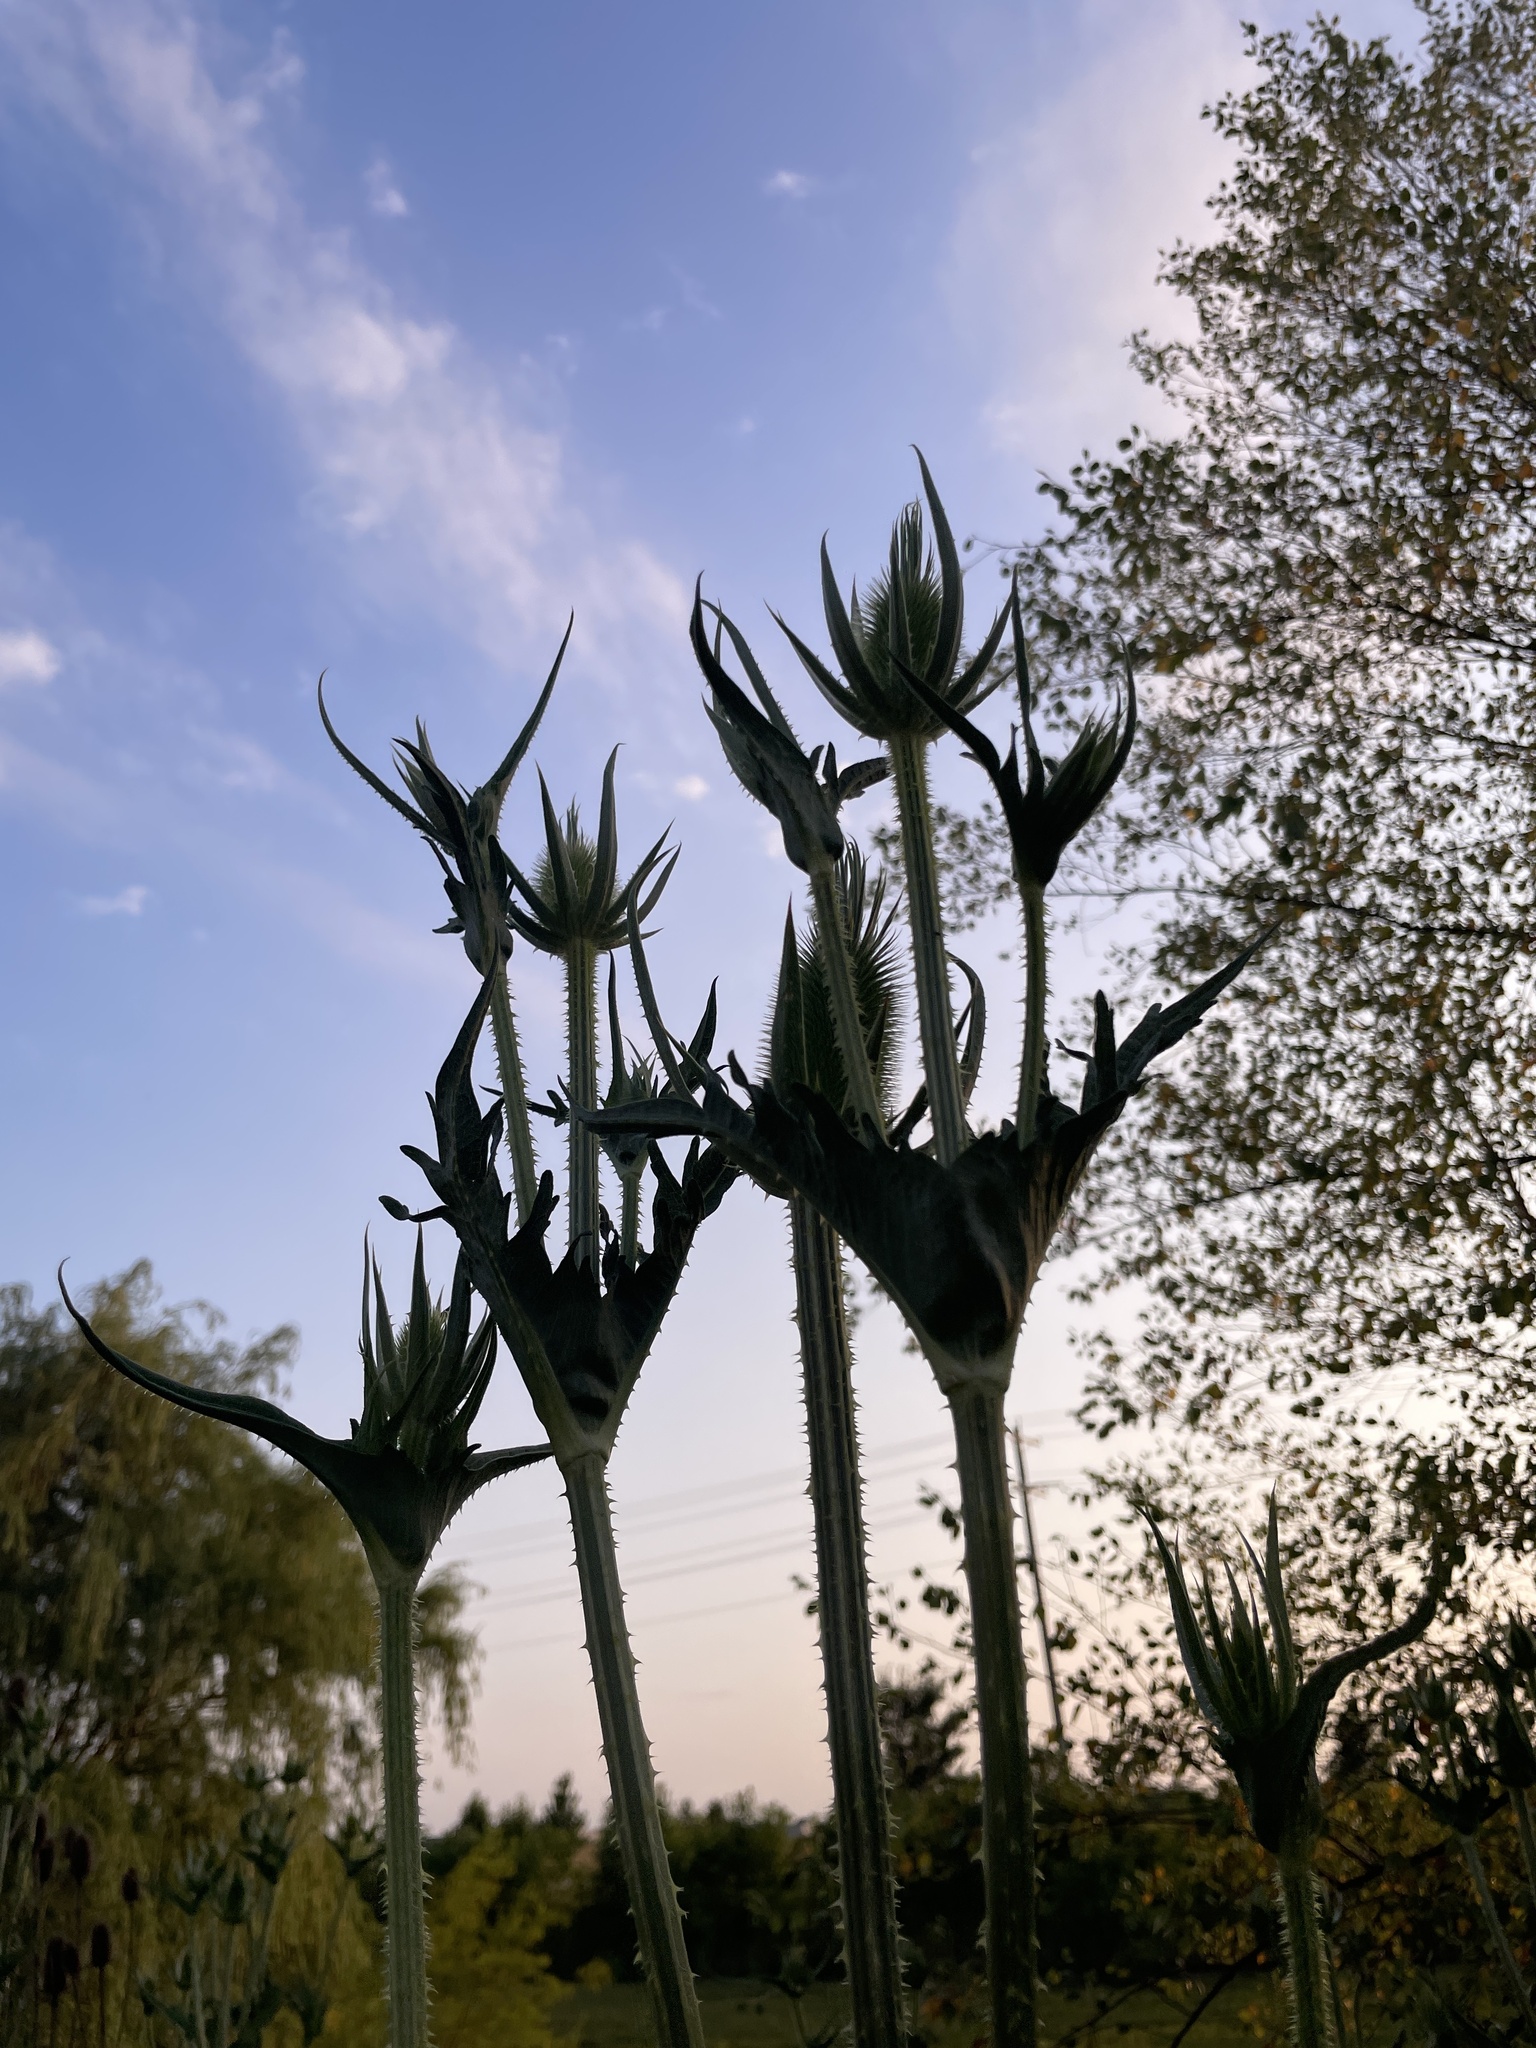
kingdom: Plantae
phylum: Tracheophyta
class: Magnoliopsida
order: Dipsacales
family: Caprifoliaceae
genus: Dipsacus
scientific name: Dipsacus laciniatus
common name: Cut-leaved teasel
